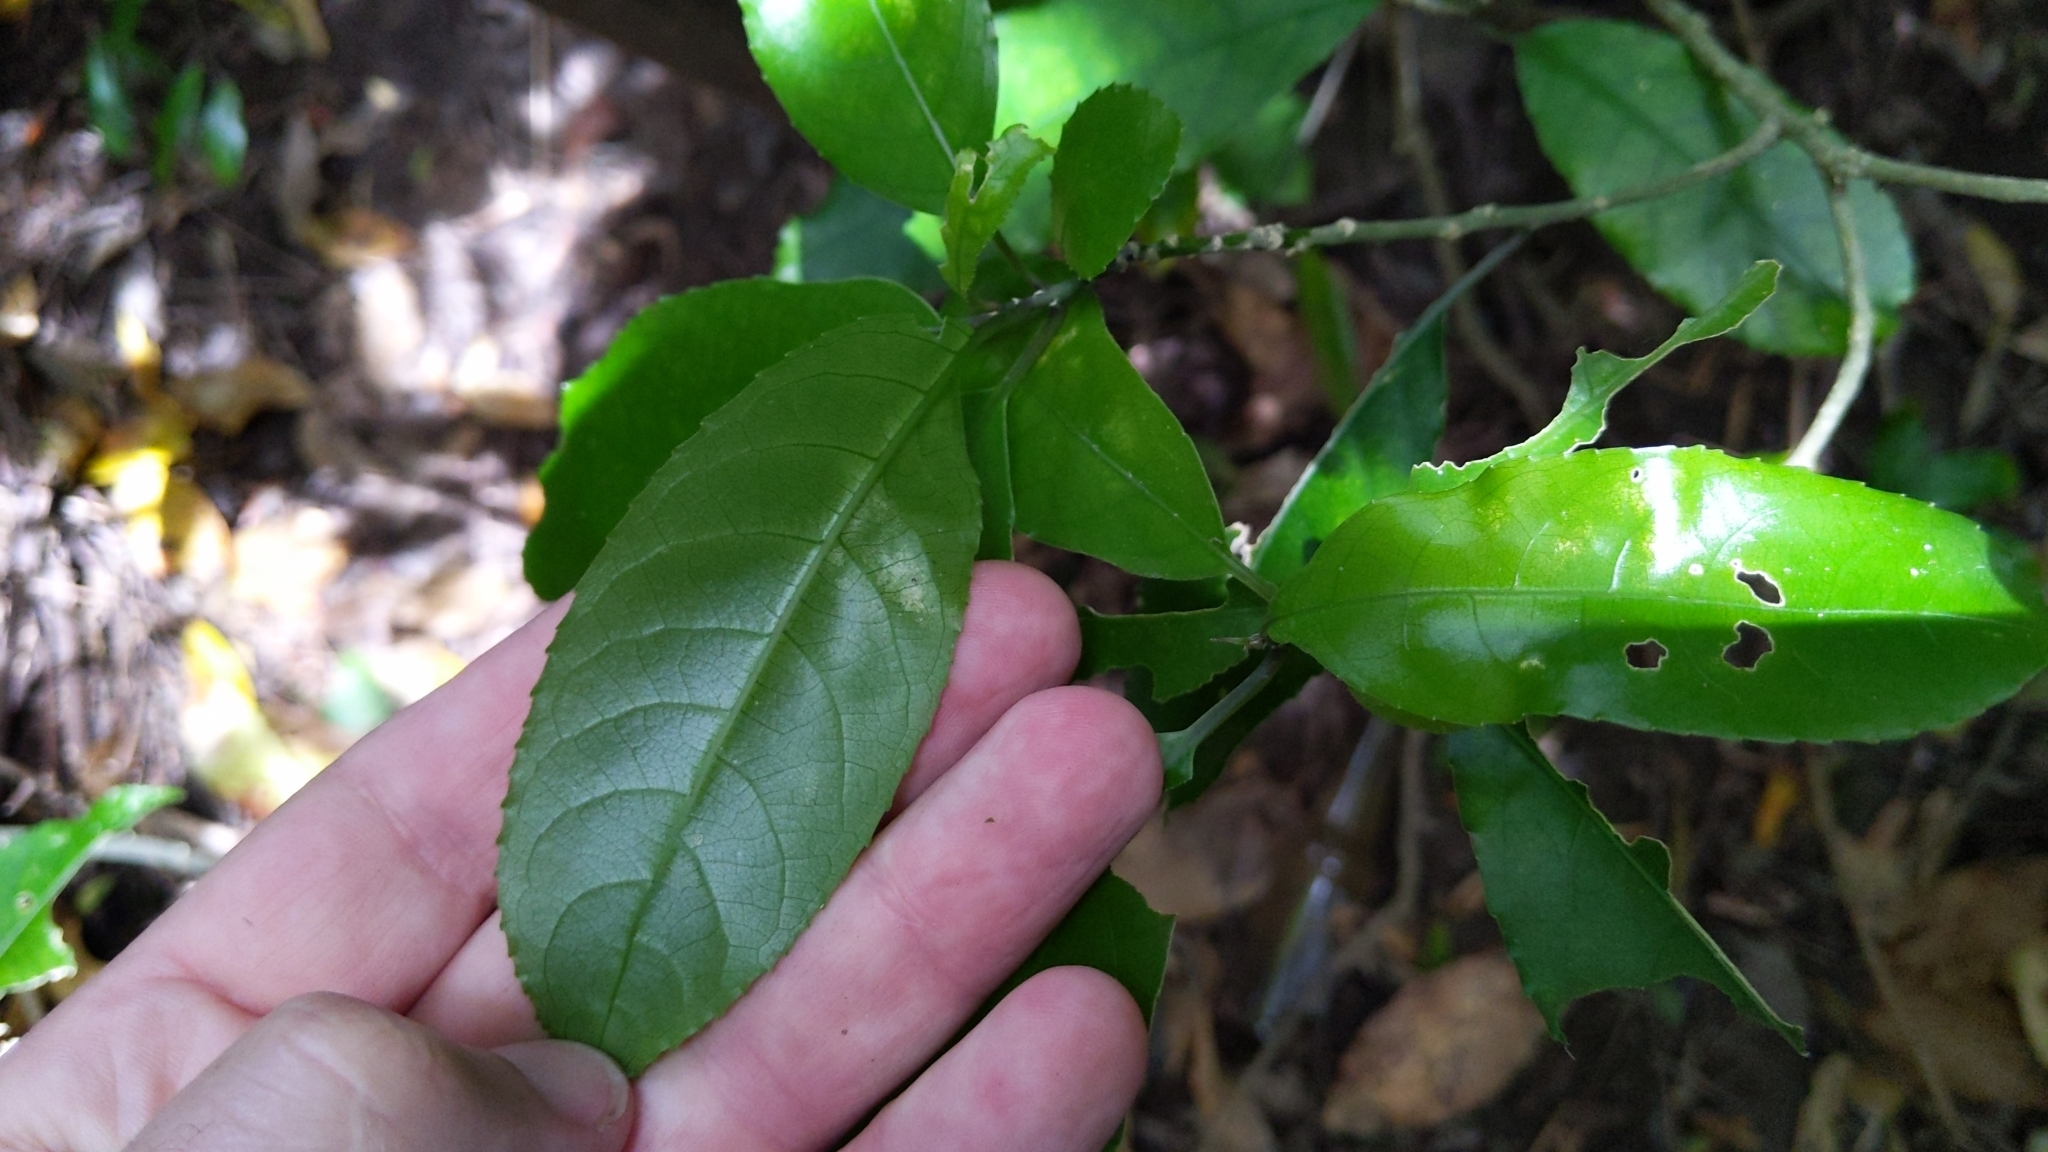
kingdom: Plantae
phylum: Tracheophyta
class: Magnoliopsida
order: Malpighiales
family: Violaceae
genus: Melicytus
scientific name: Melicytus ramiflorus
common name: Mahoe
